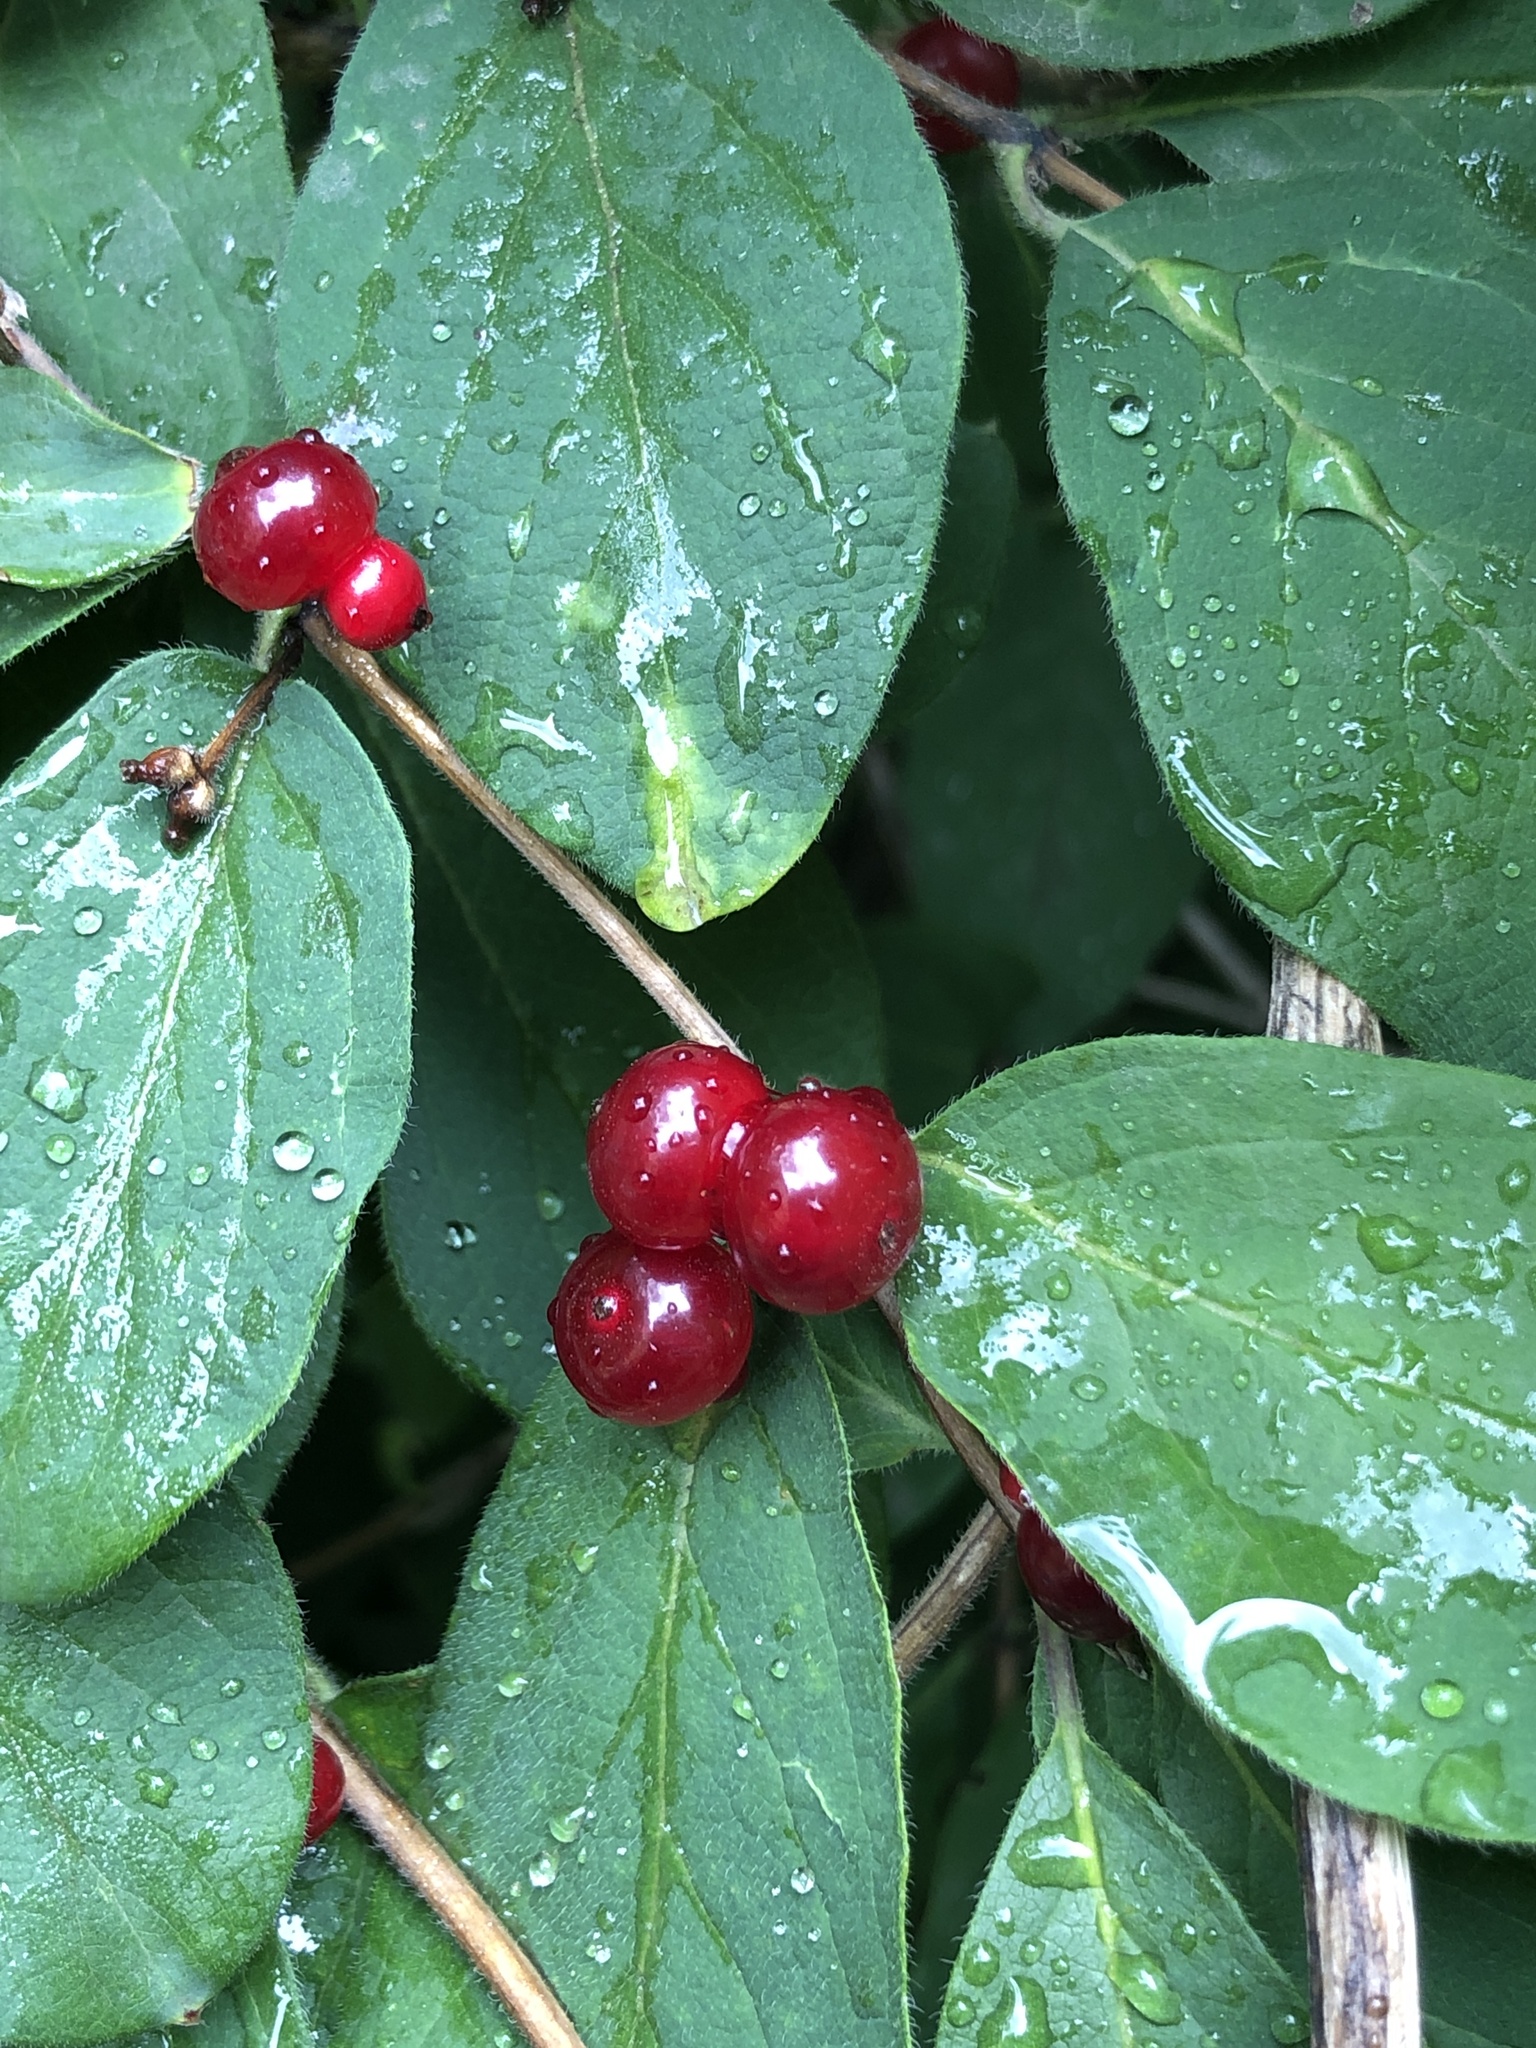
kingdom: Plantae
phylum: Tracheophyta
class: Magnoliopsida
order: Dipsacales
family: Caprifoliaceae
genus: Lonicera
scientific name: Lonicera xylosteum
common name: Fly honeysuckle
